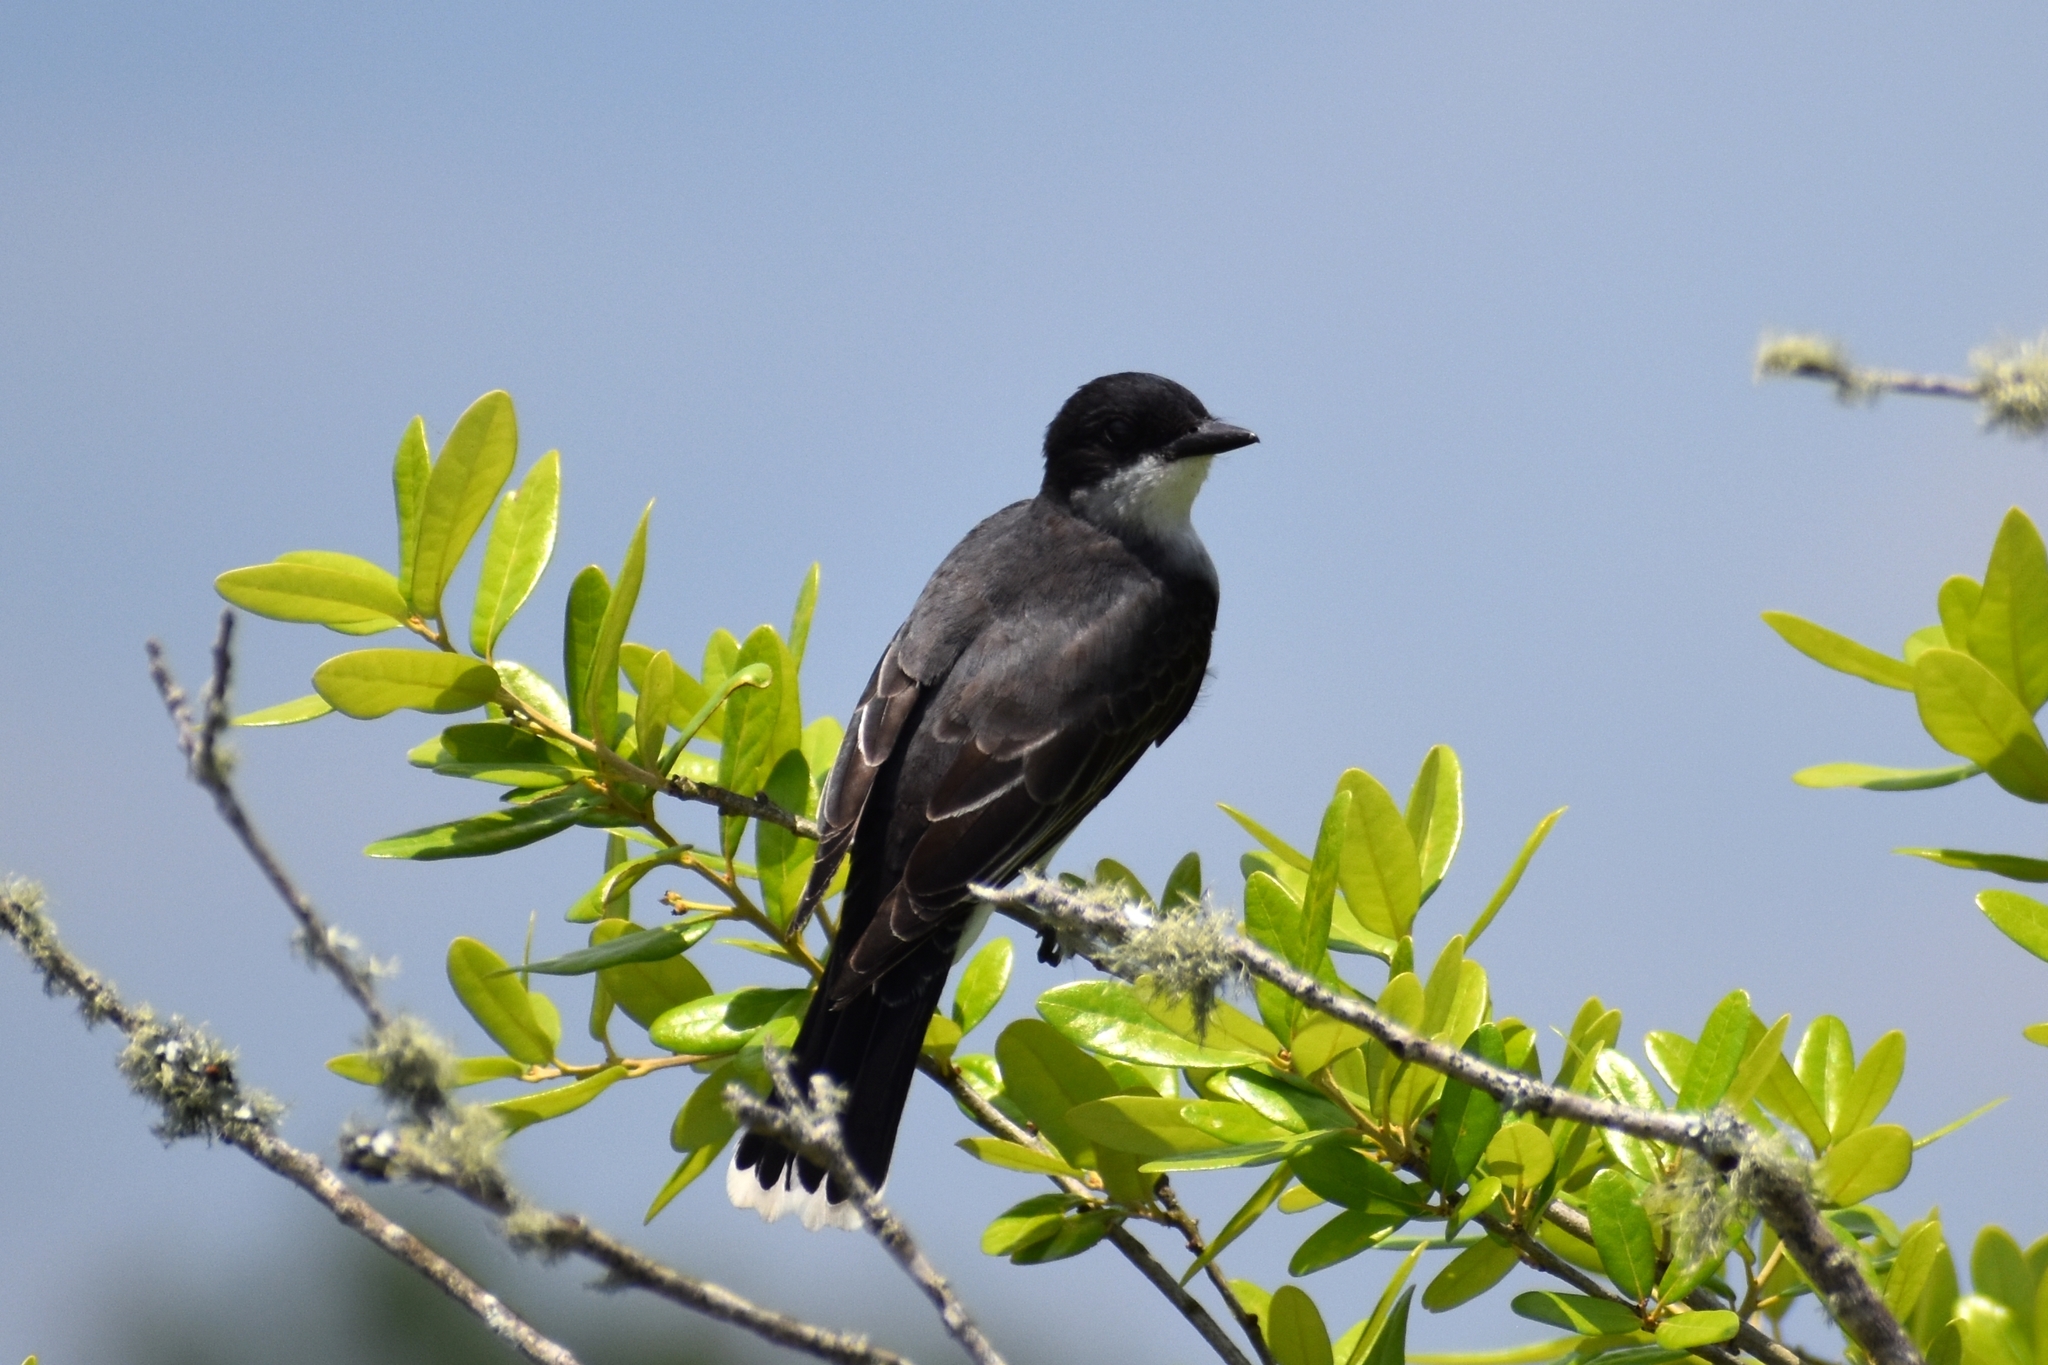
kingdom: Animalia
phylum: Chordata
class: Aves
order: Passeriformes
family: Tyrannidae
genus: Tyrannus
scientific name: Tyrannus tyrannus
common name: Eastern kingbird
